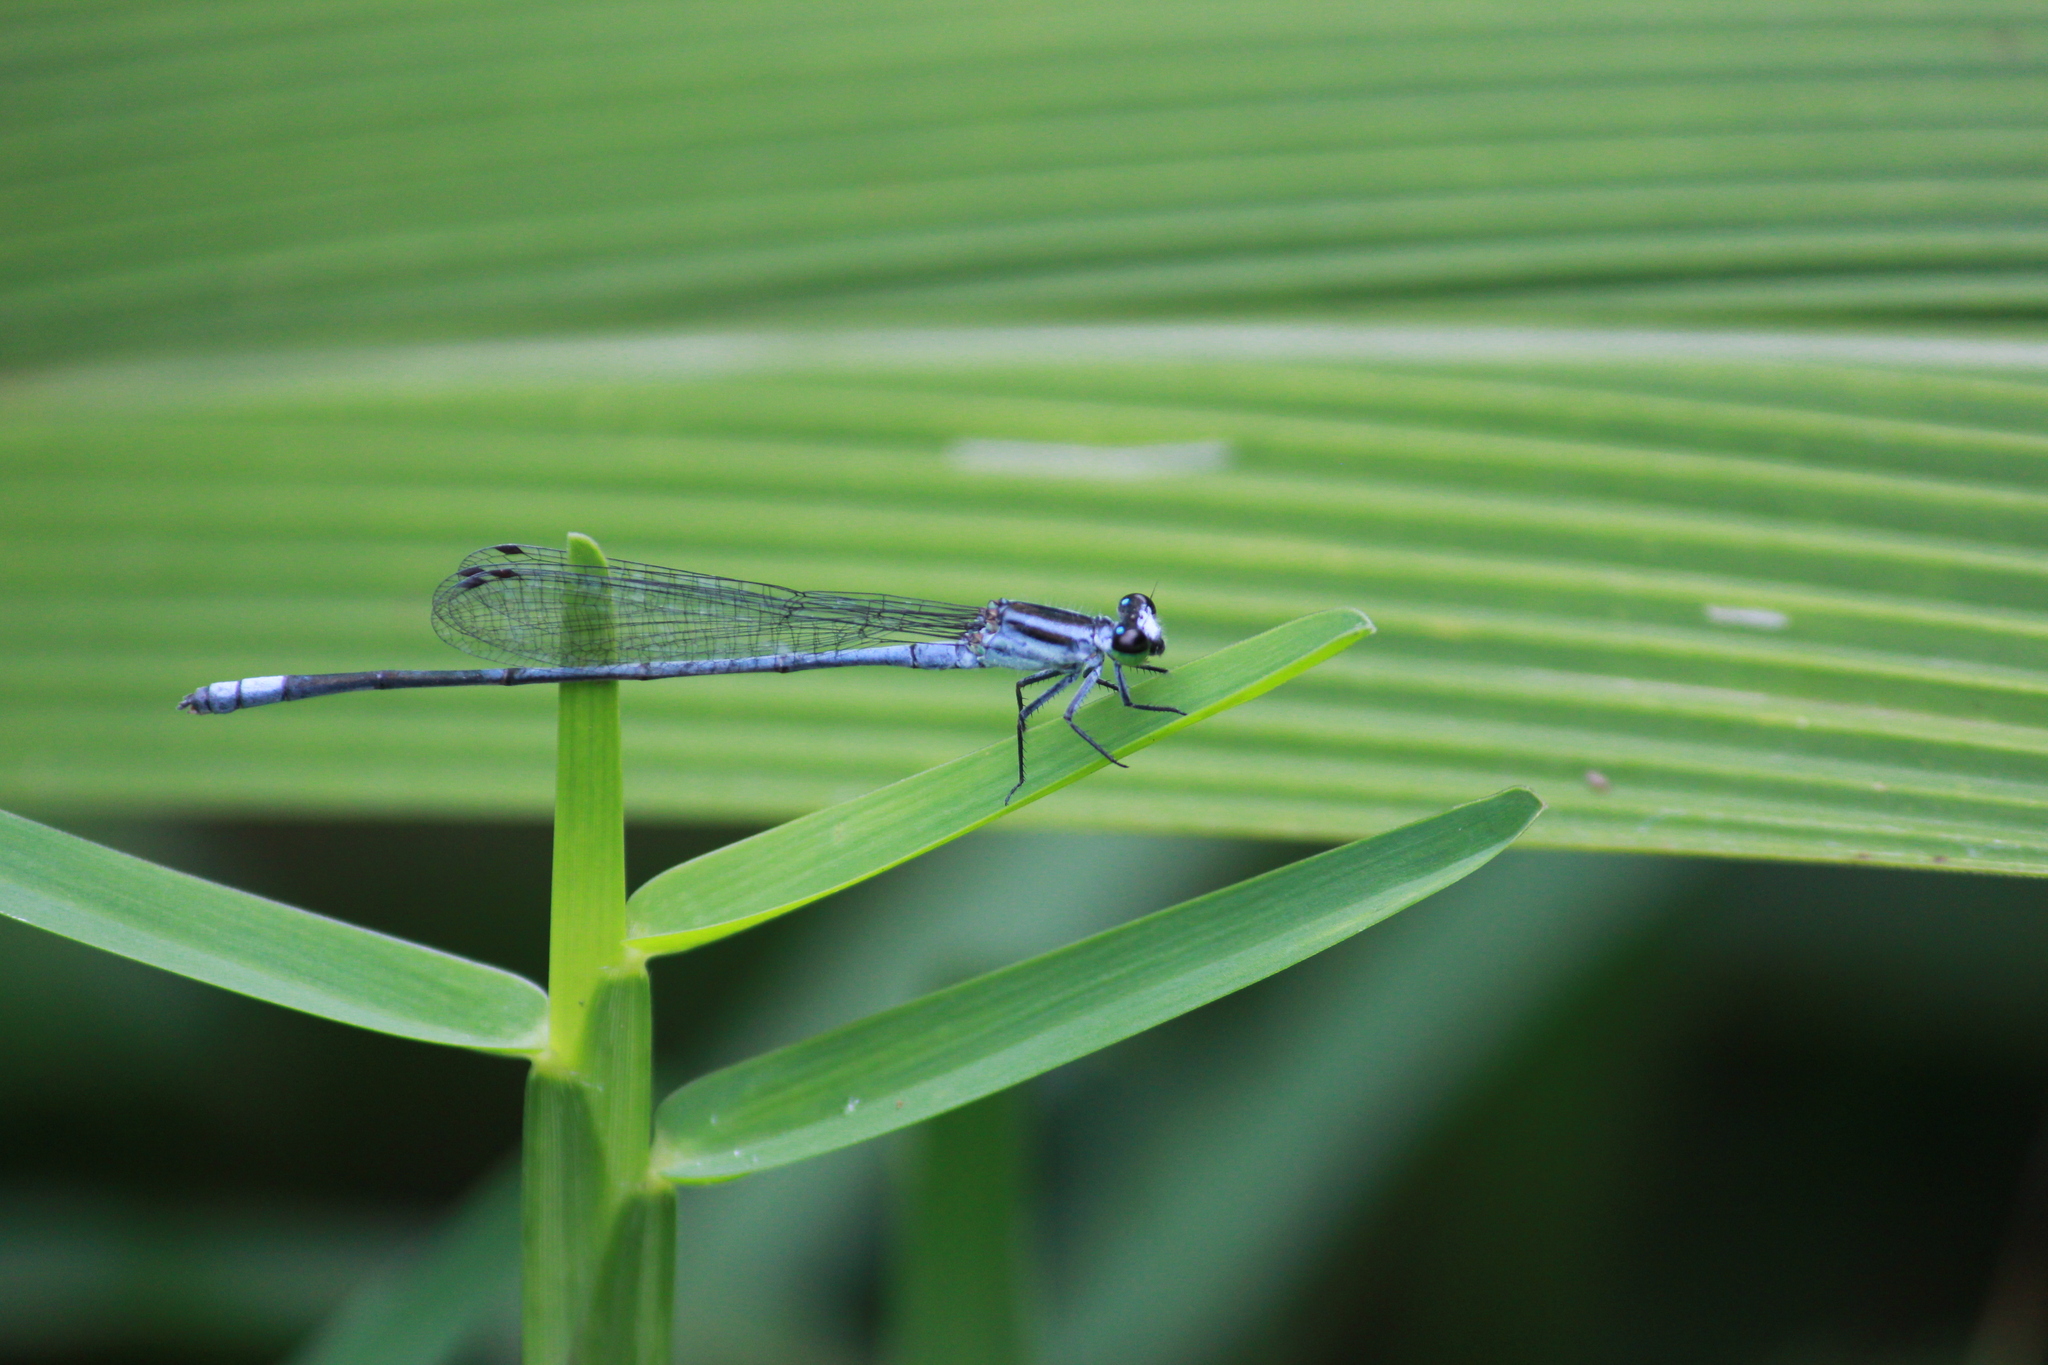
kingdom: Animalia
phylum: Arthropoda
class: Insecta
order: Odonata
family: Coenagrionidae
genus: Pseudagrion
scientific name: Pseudagrion kersteni
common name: Powder-faced sprite
